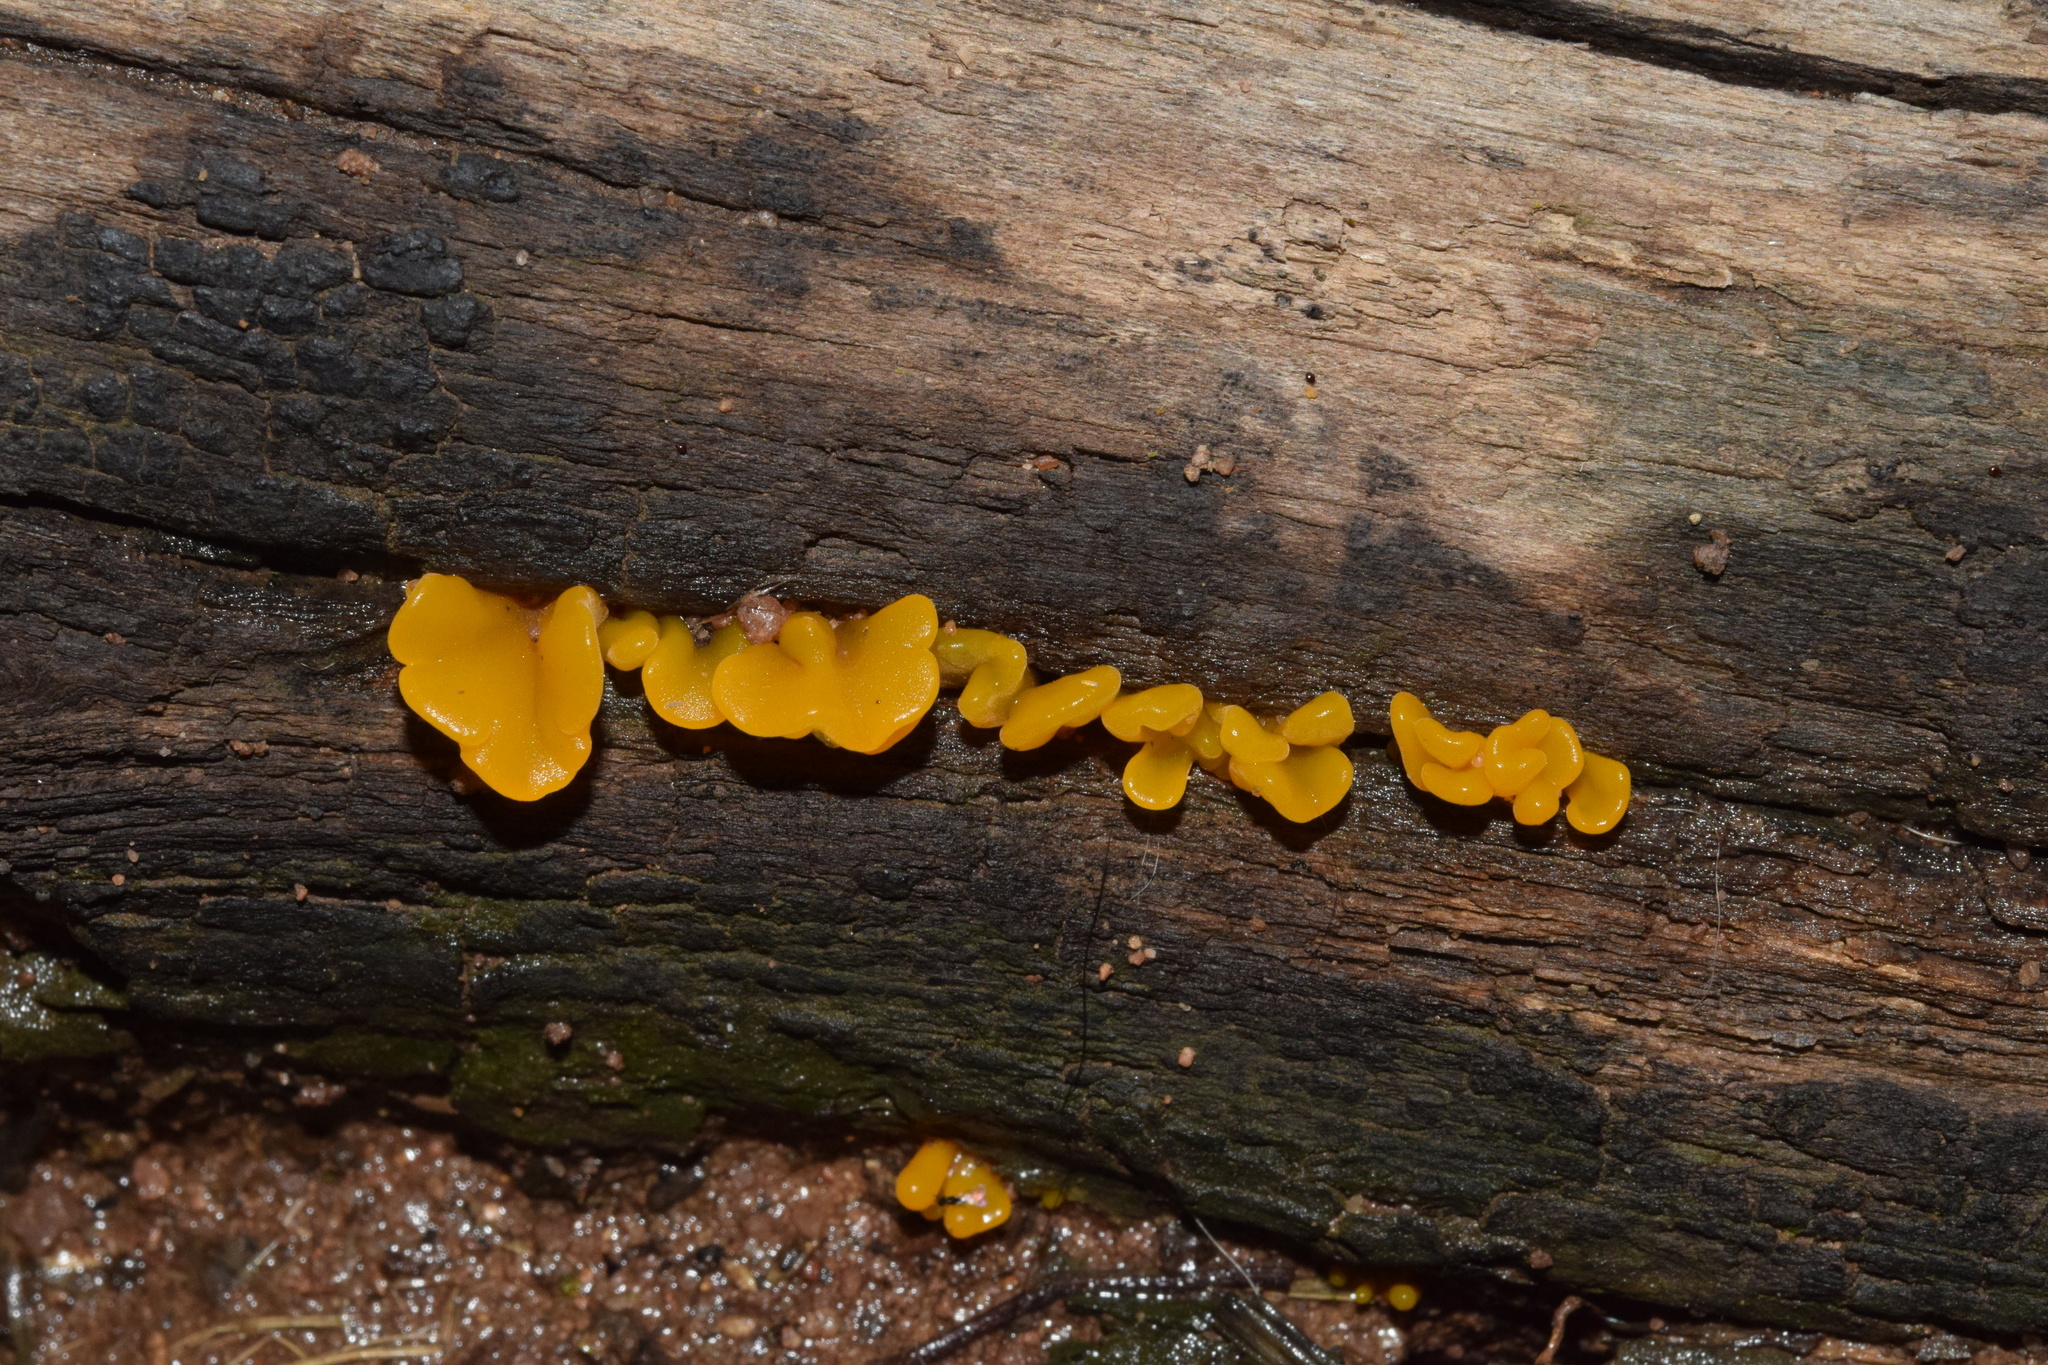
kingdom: Fungi
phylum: Basidiomycota
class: Dacrymycetes
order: Dacrymycetales
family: Dacrymycetaceae
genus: Dacrymyces
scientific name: Dacrymyces spathularius
